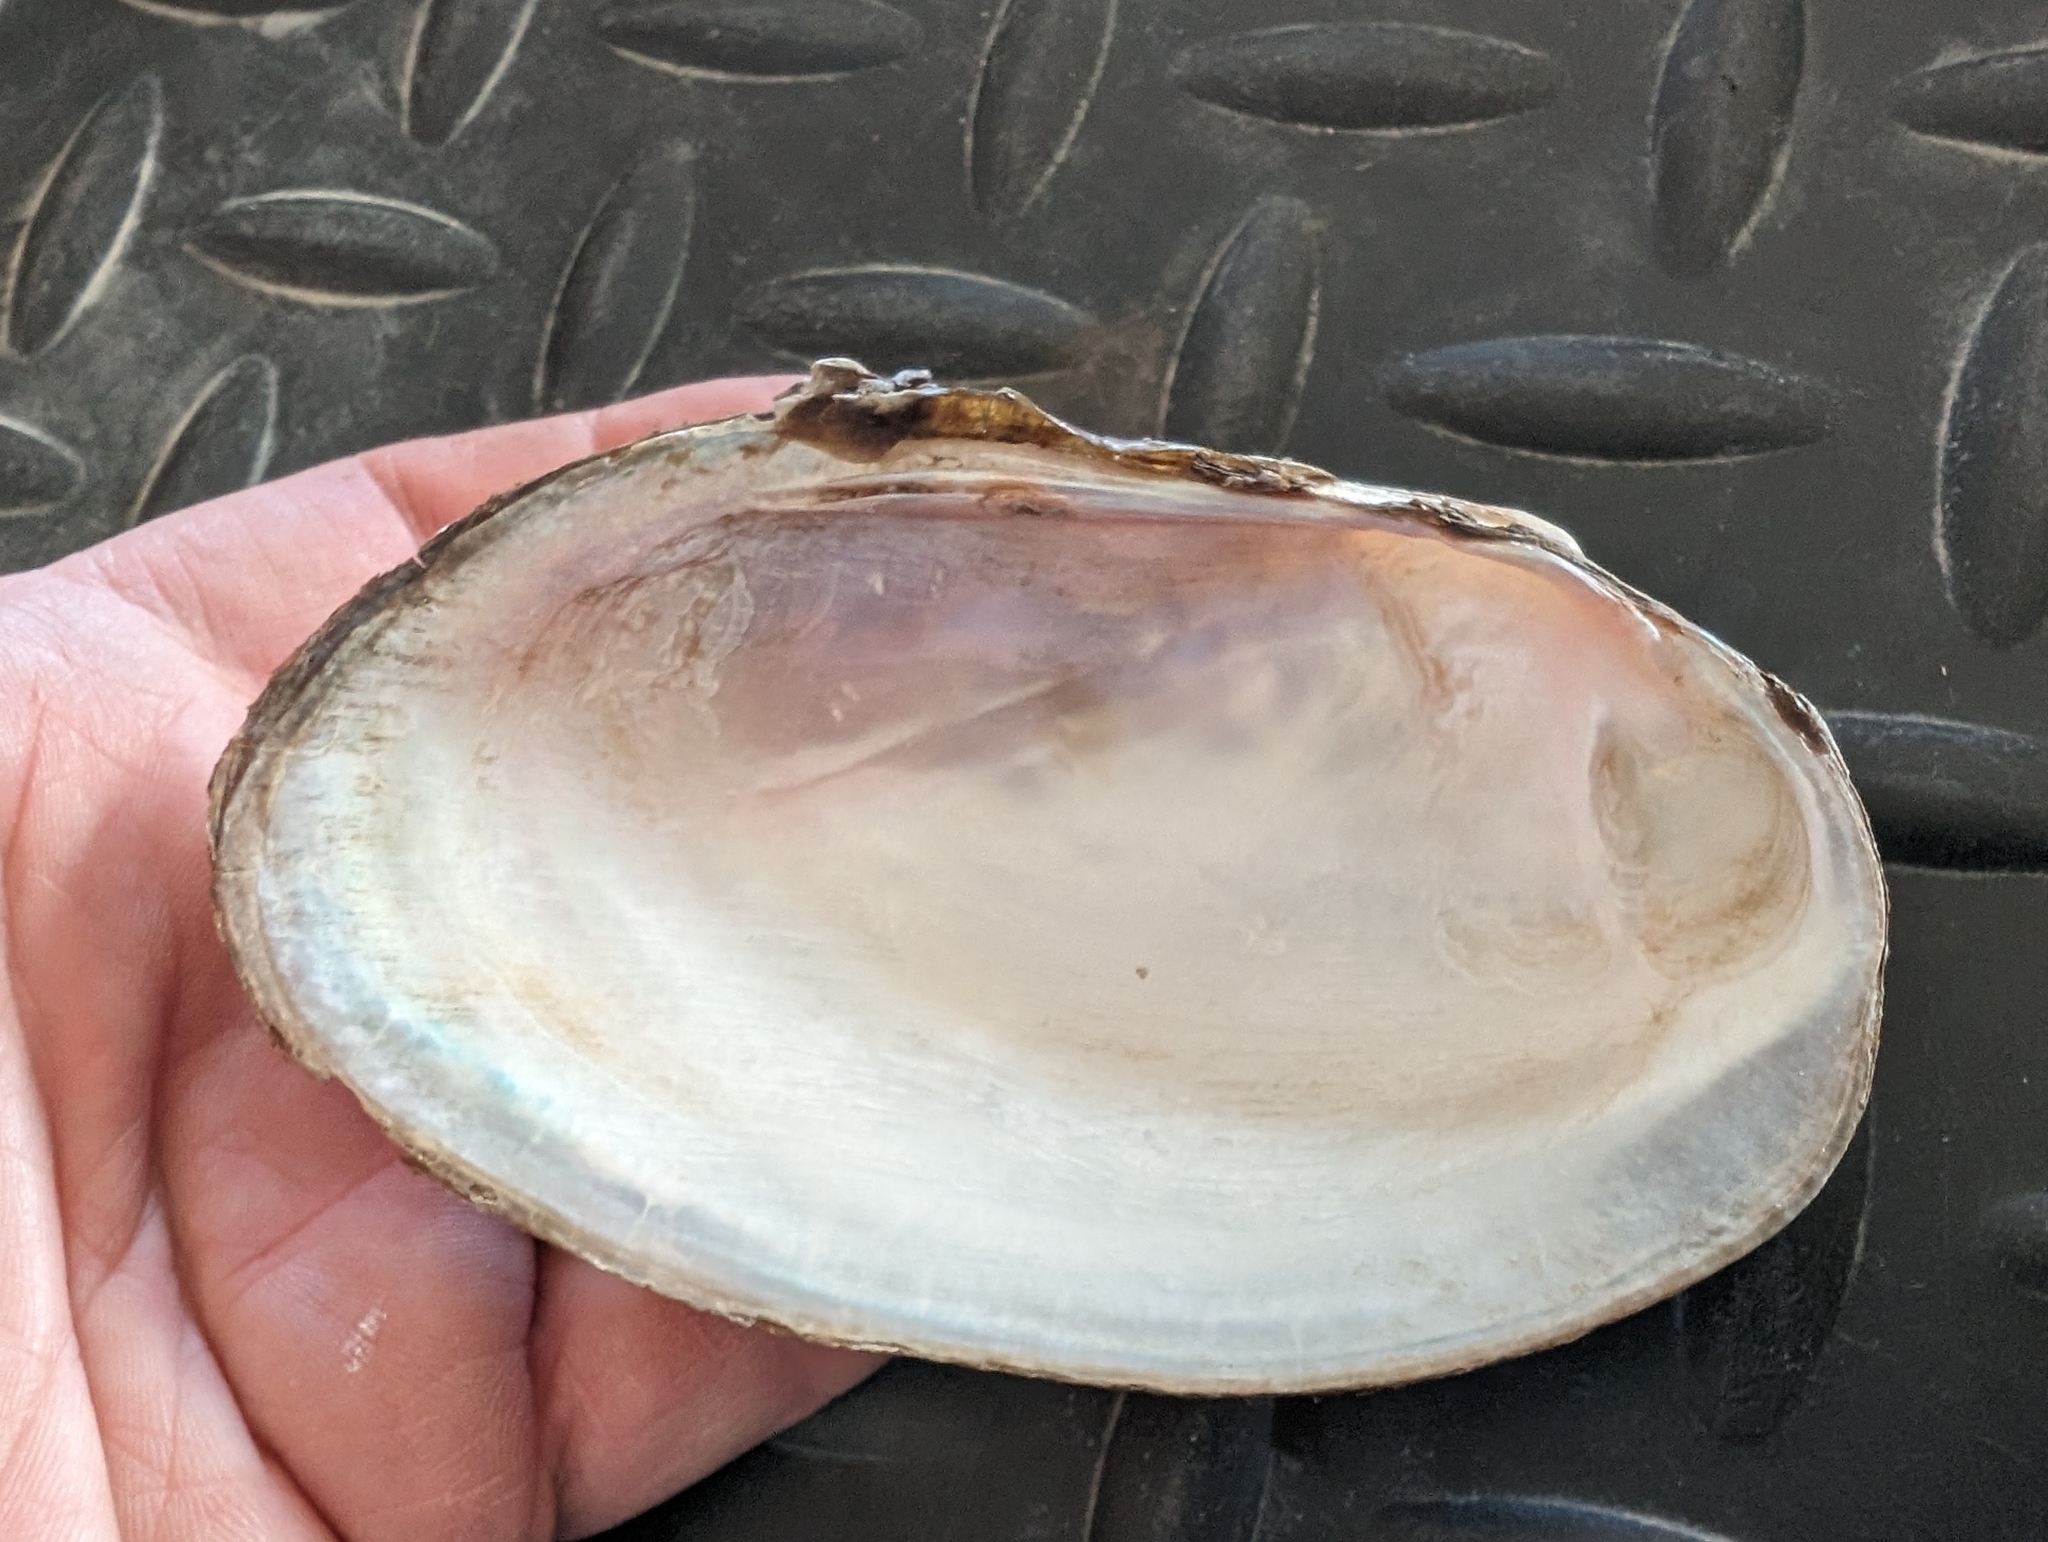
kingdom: Animalia
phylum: Mollusca
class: Bivalvia
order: Unionida
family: Unionidae
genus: Potamilus
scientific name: Potamilus fragilis
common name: Fragile papershell
